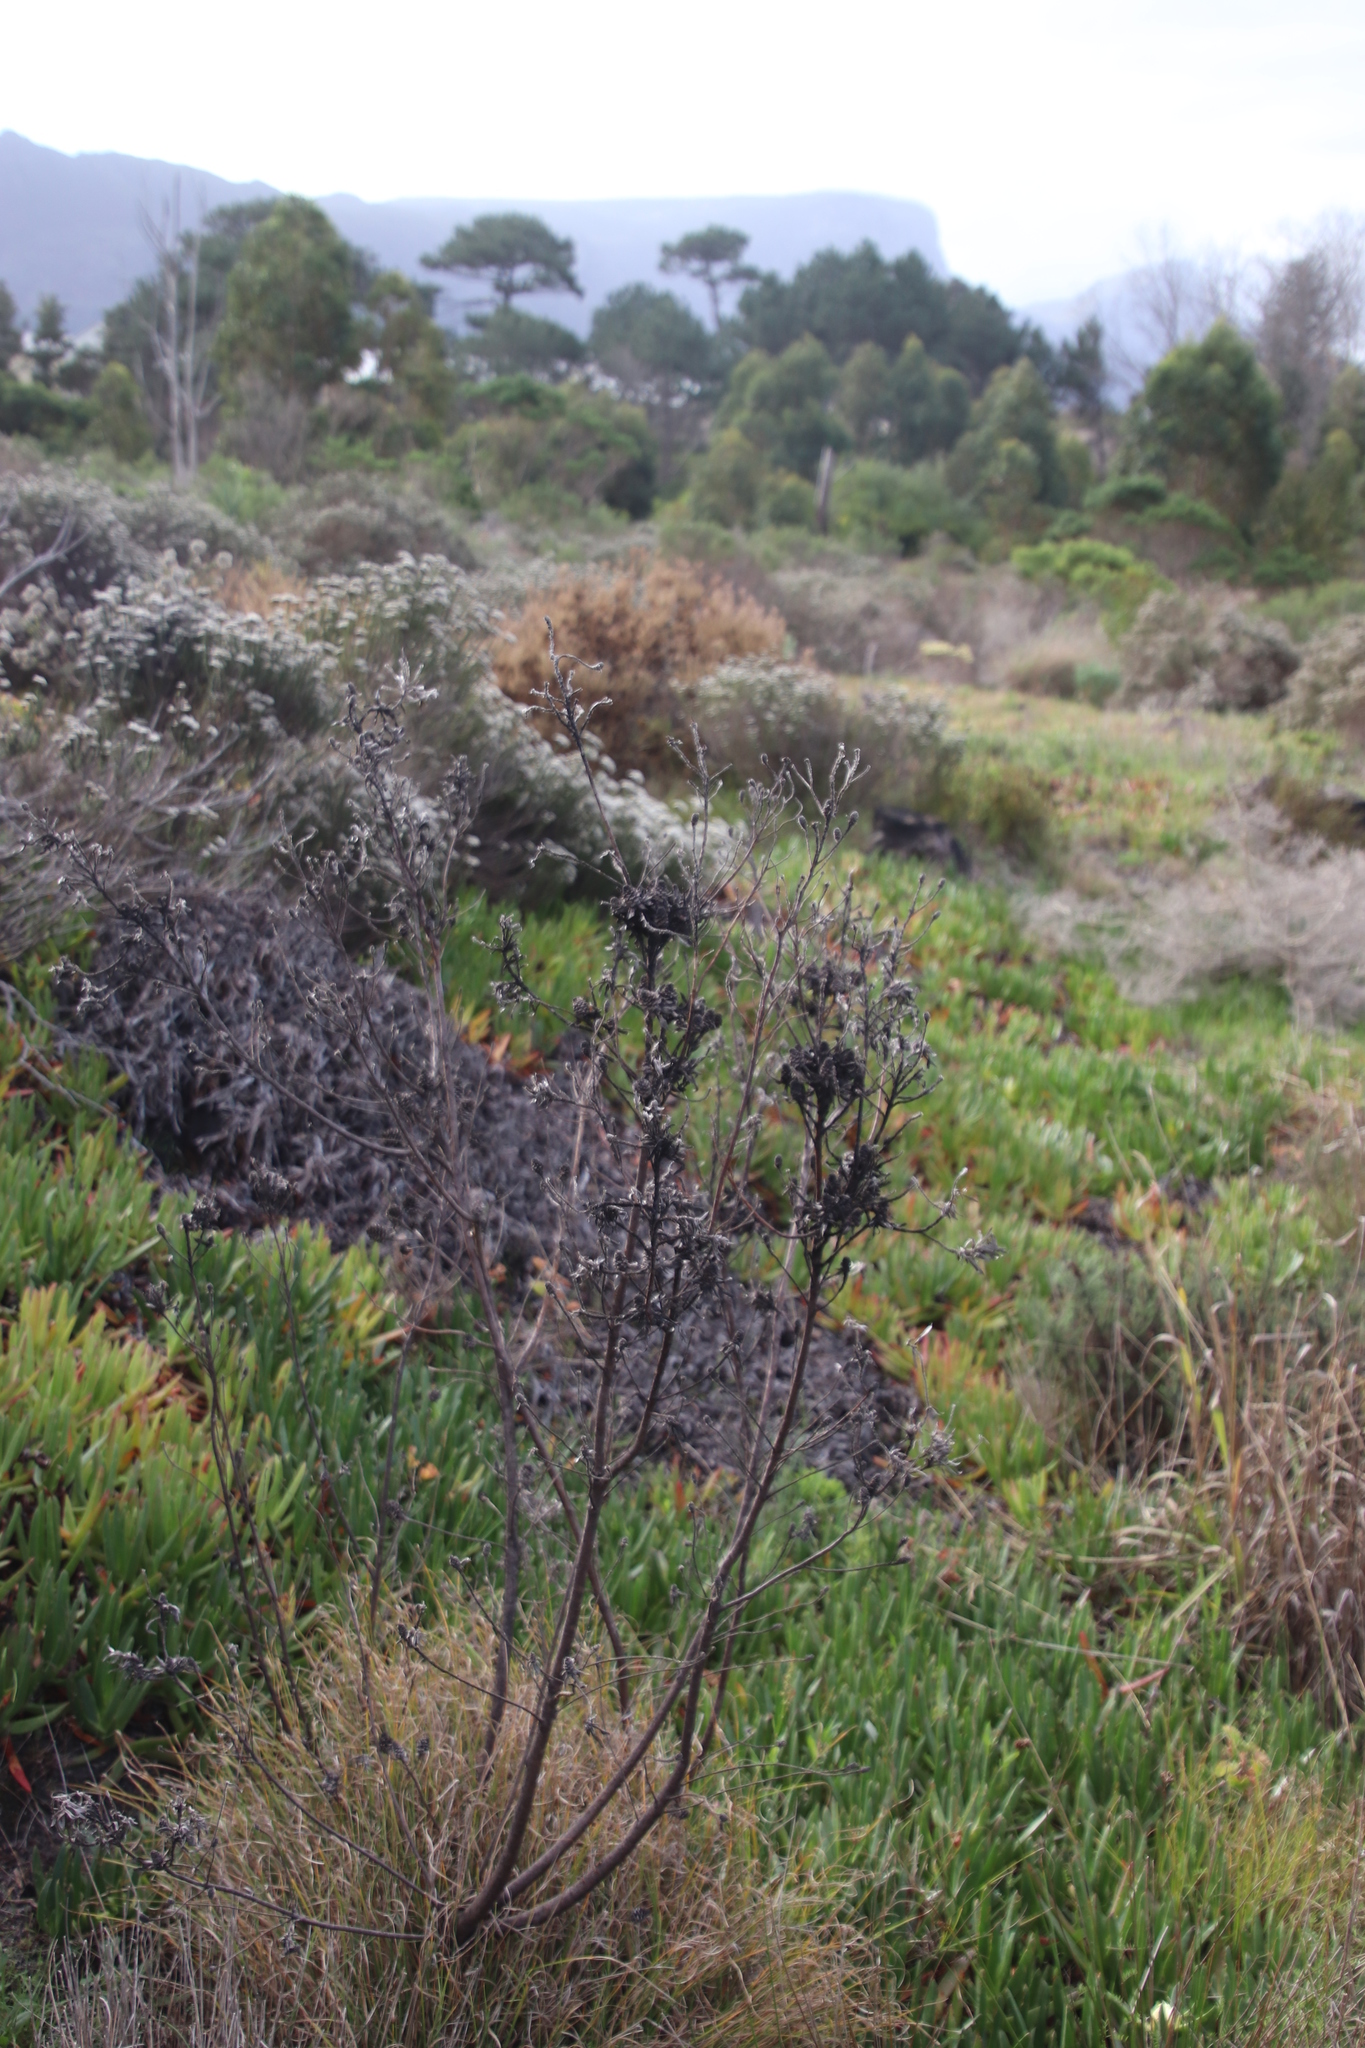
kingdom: Plantae
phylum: Tracheophyta
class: Magnoliopsida
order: Proteales
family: Proteaceae
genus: Leucadendron
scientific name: Leucadendron floridum
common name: Flats conebush
